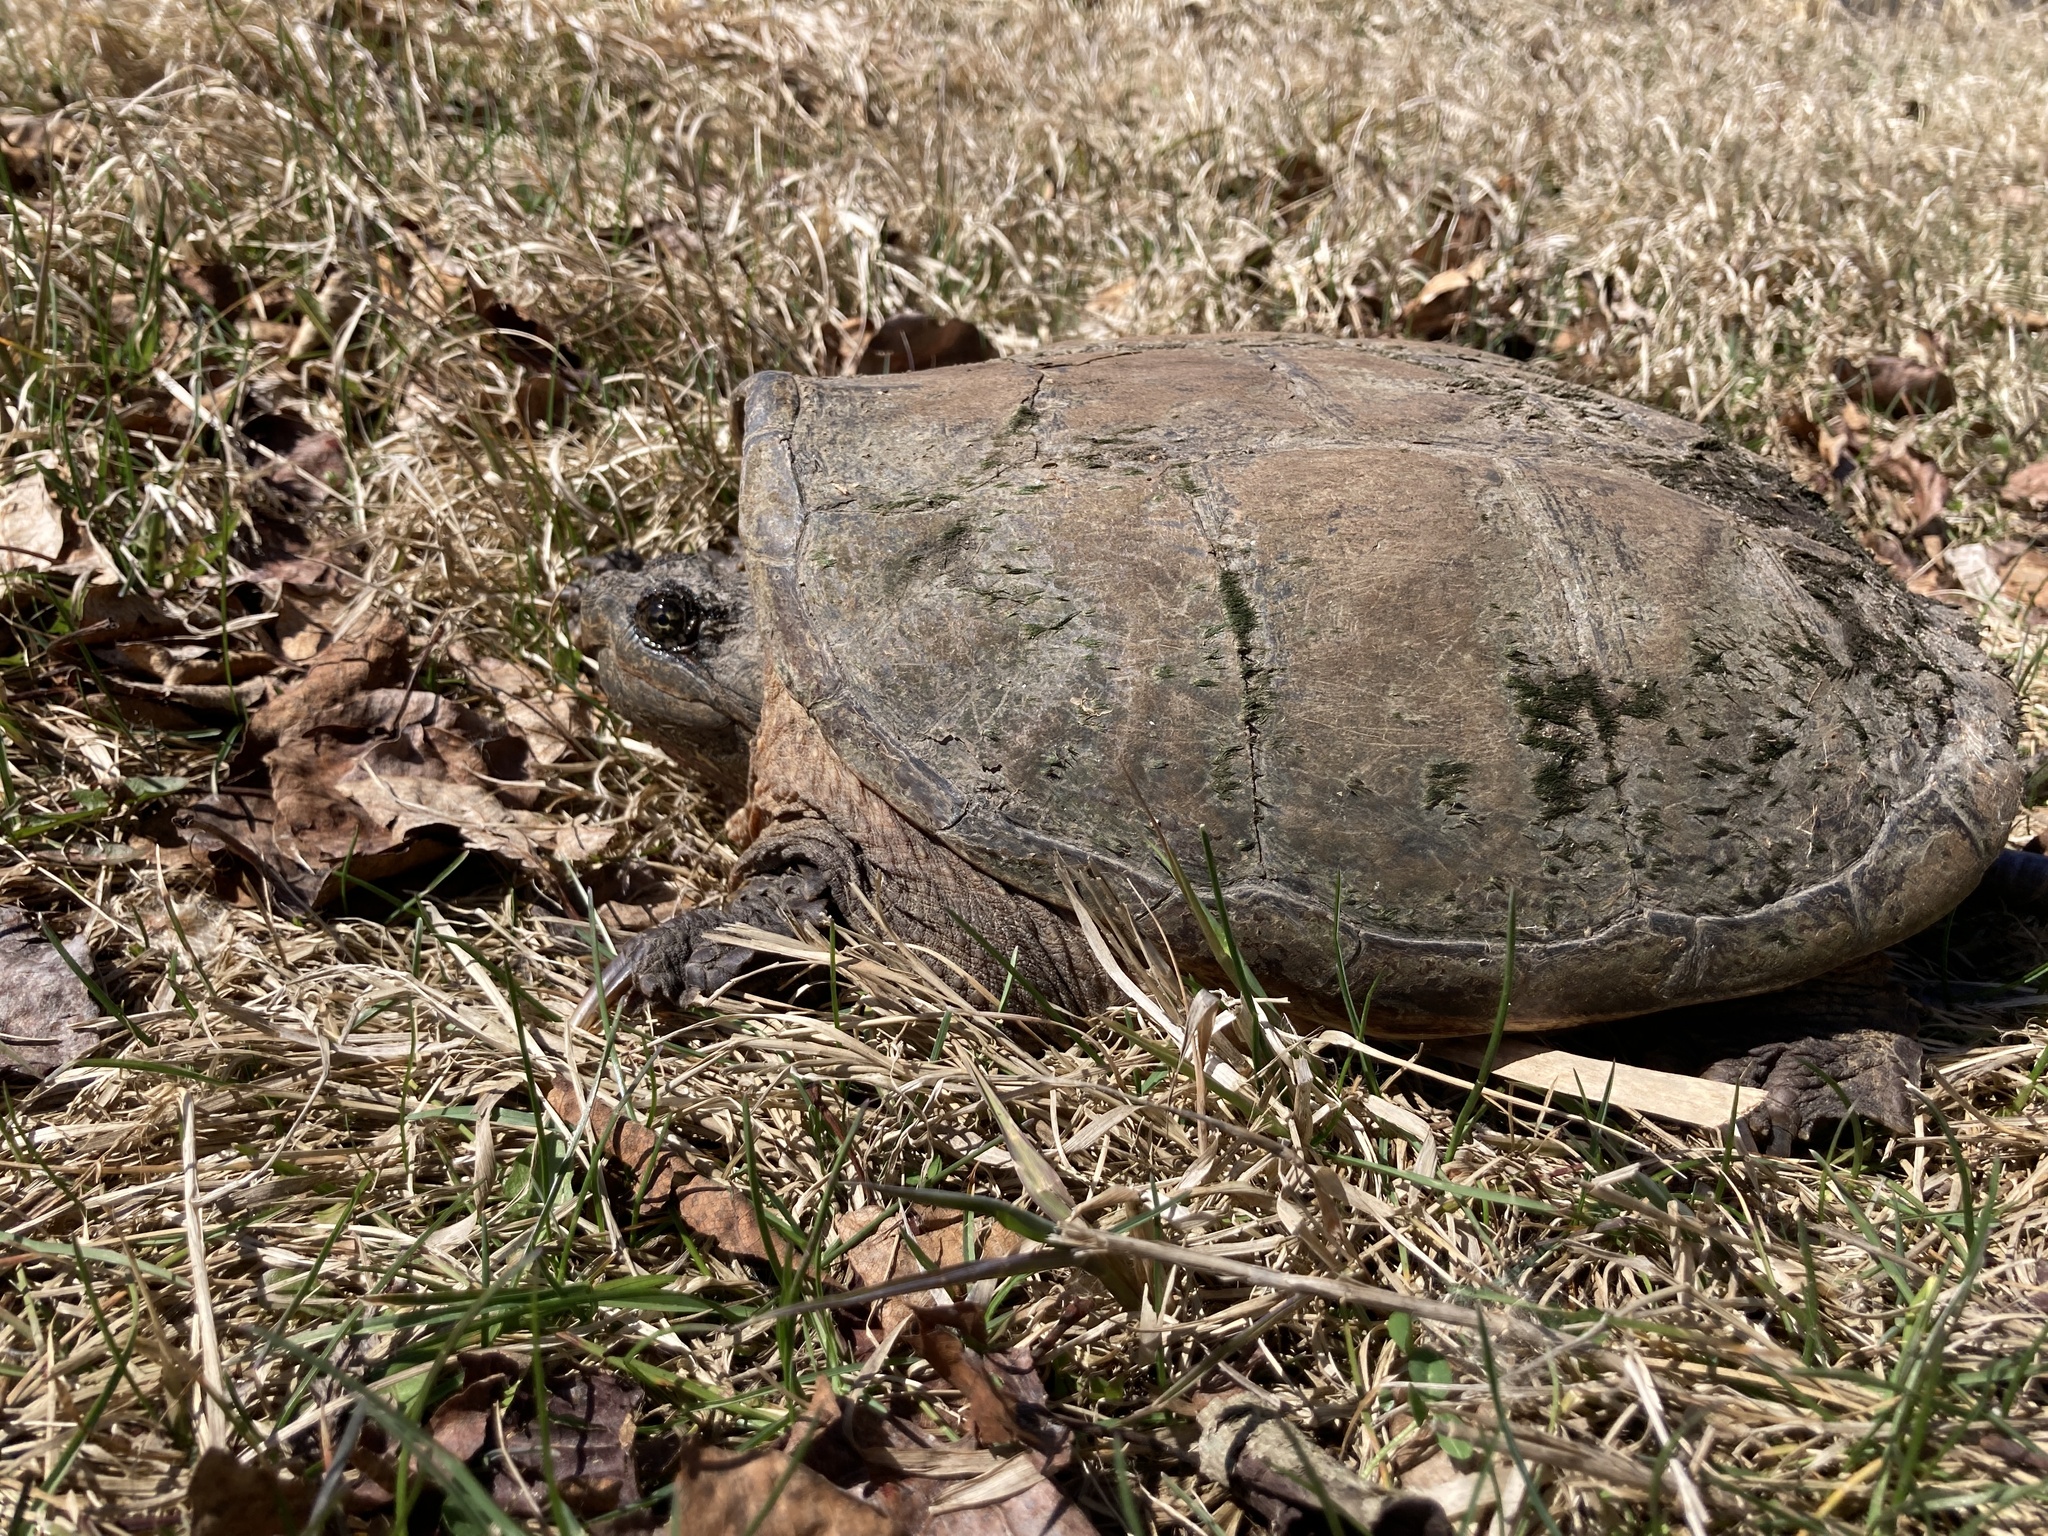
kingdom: Animalia
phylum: Chordata
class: Testudines
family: Chelydridae
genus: Chelydra
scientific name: Chelydra serpentina
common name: Common snapping turtle
